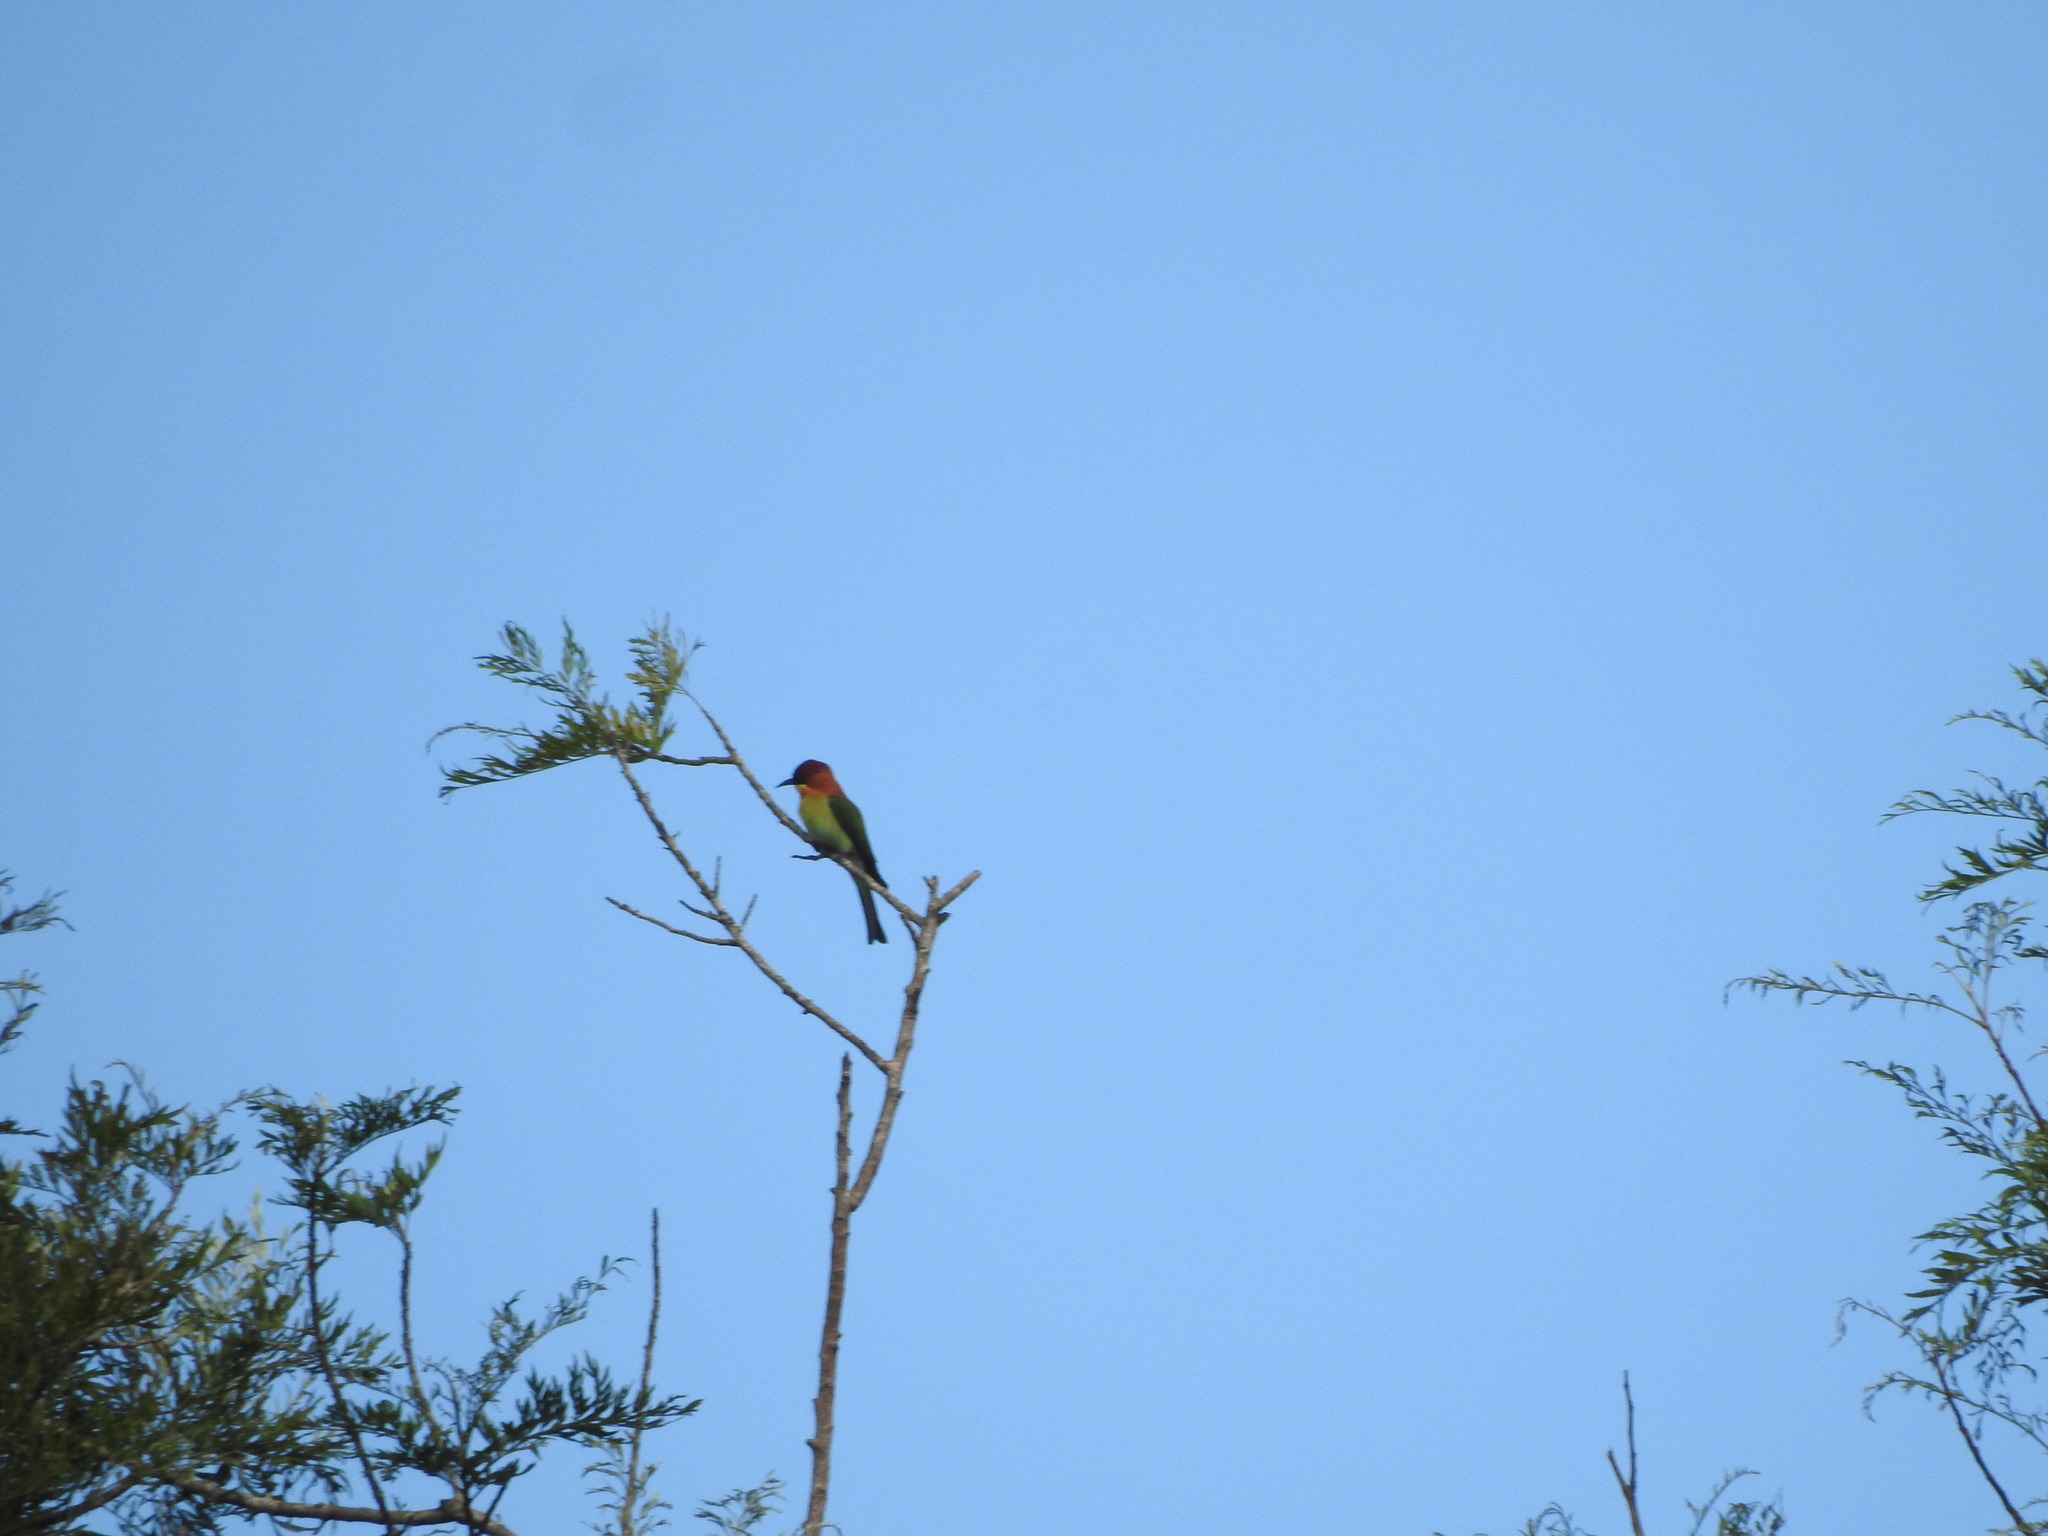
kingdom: Animalia
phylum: Chordata
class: Aves
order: Coraciiformes
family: Meropidae
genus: Merops
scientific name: Merops leschenaulti
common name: Chestnut-headed bee-eater
